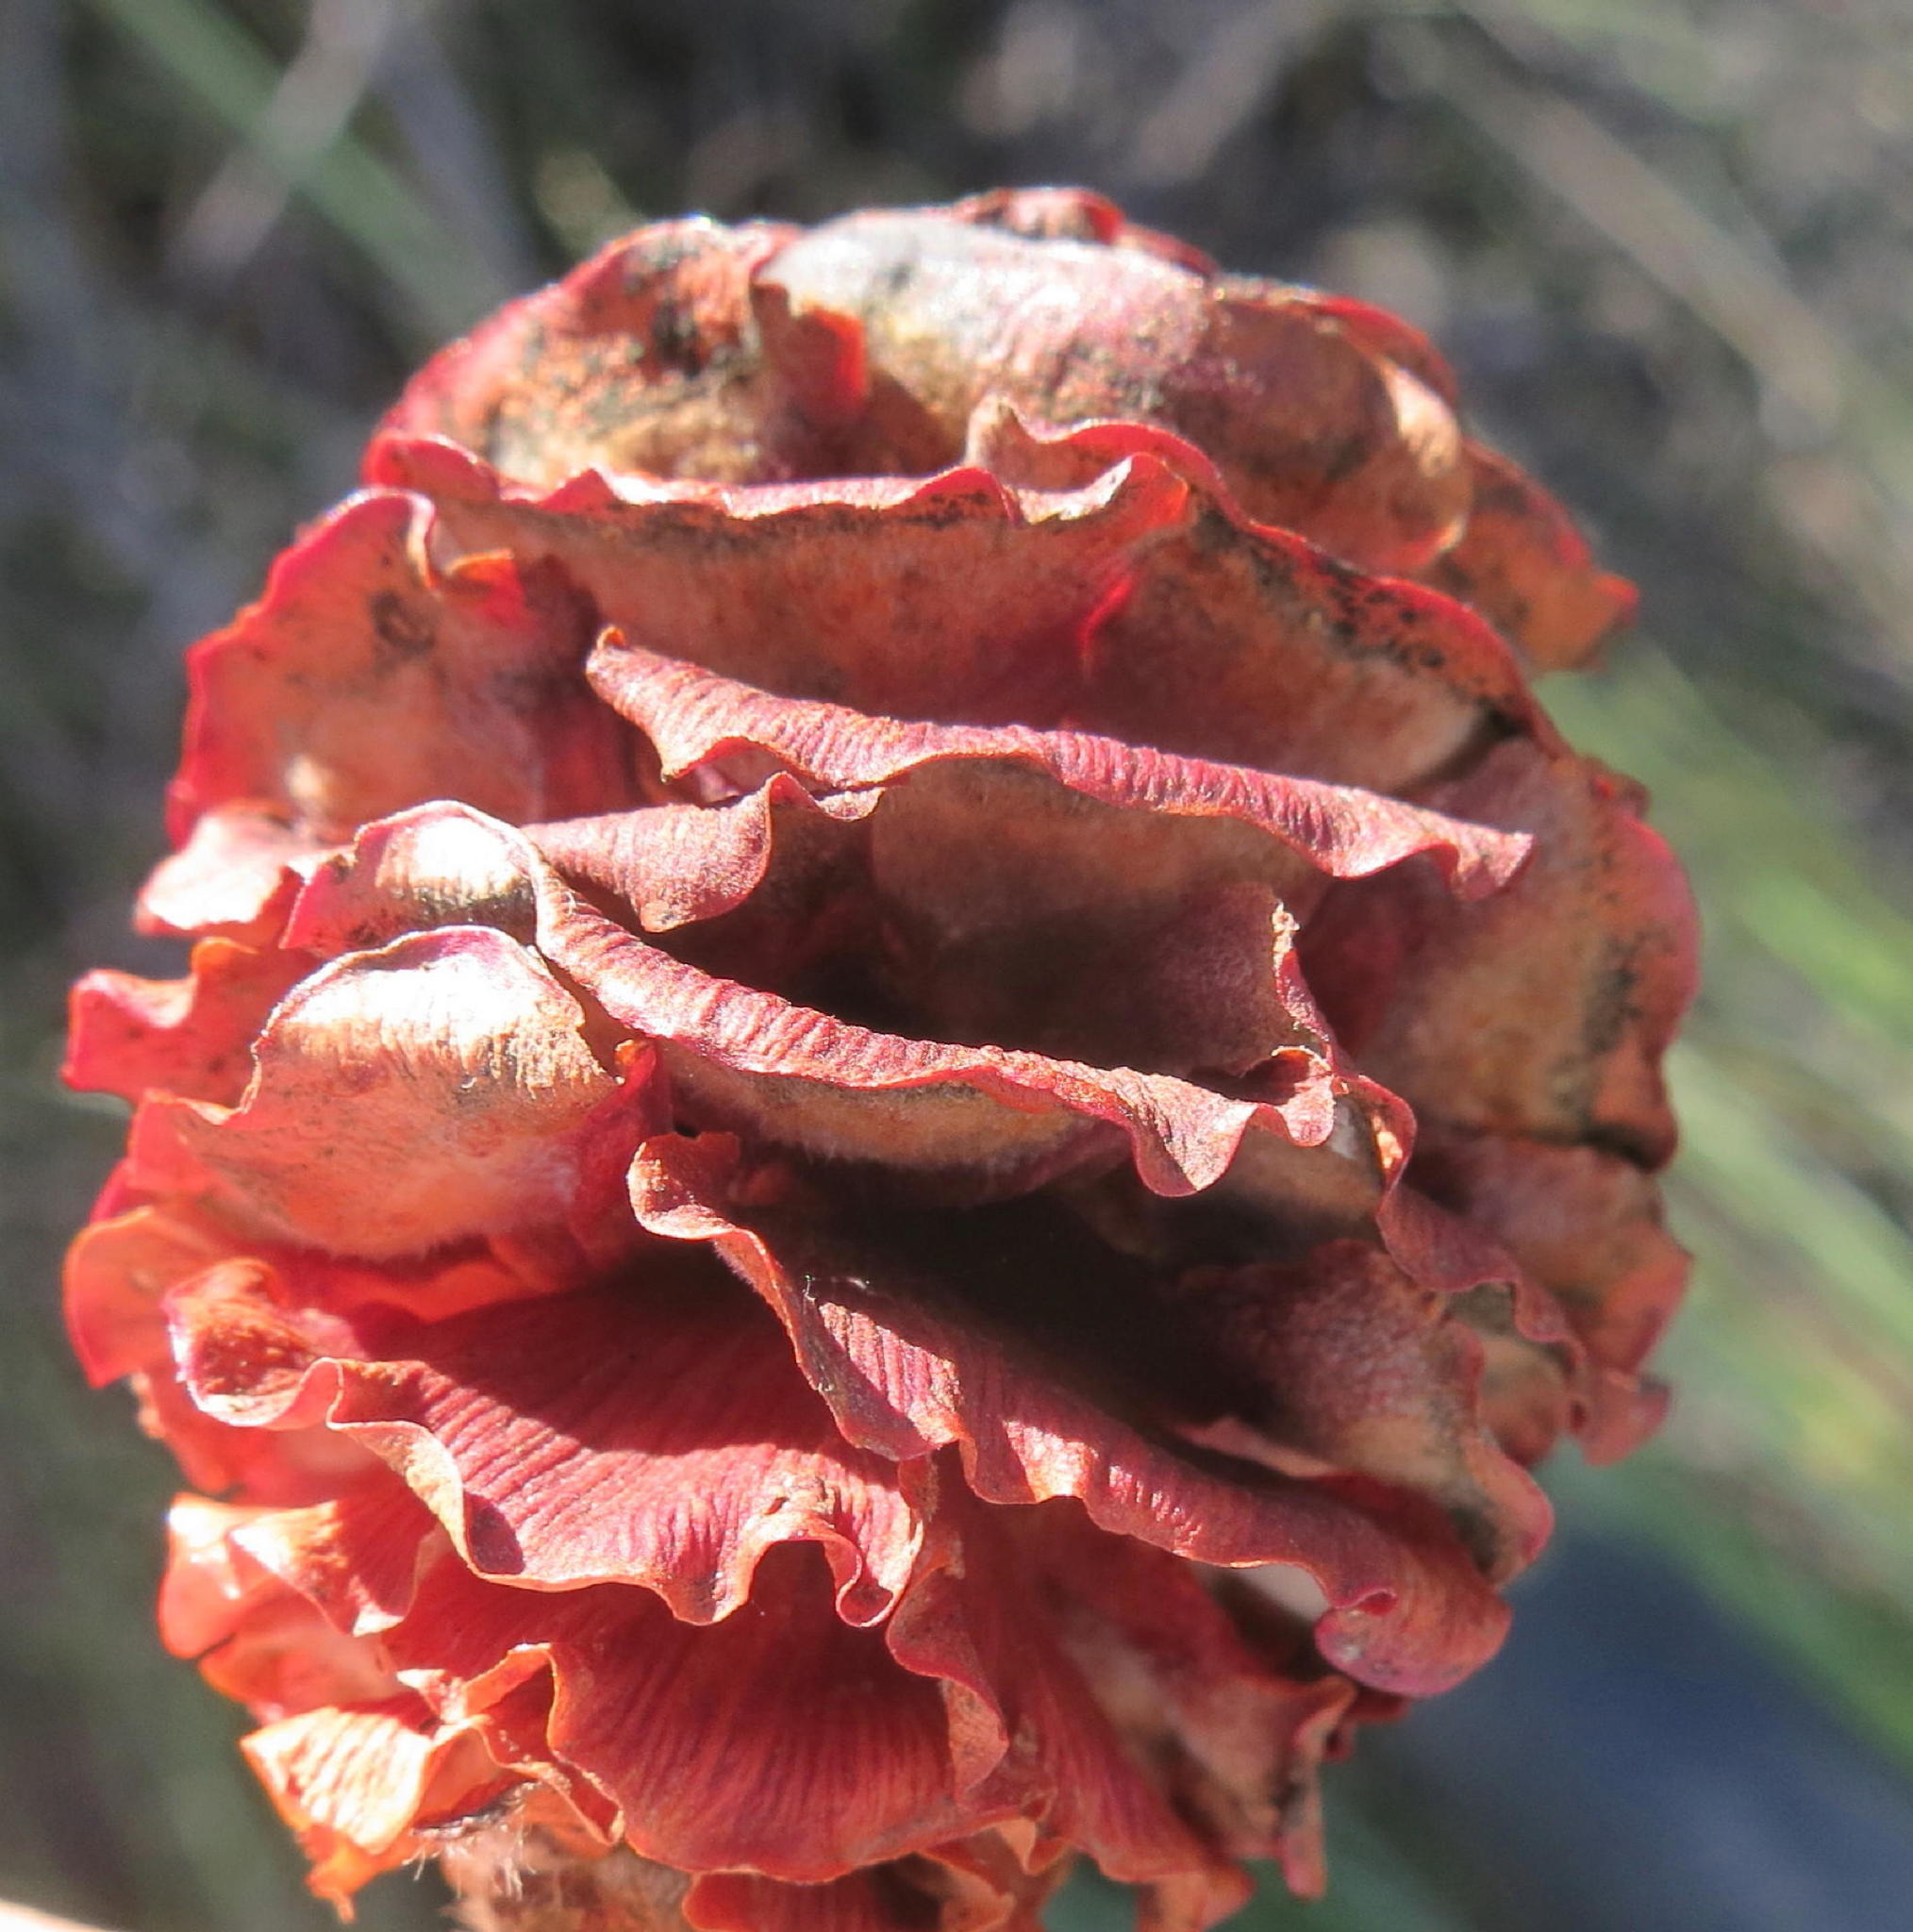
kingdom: Plantae
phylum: Tracheophyta
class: Magnoliopsida
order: Proteales
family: Proteaceae
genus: Leucadendron
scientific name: Leucadendron conicum
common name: Garden route conebush
